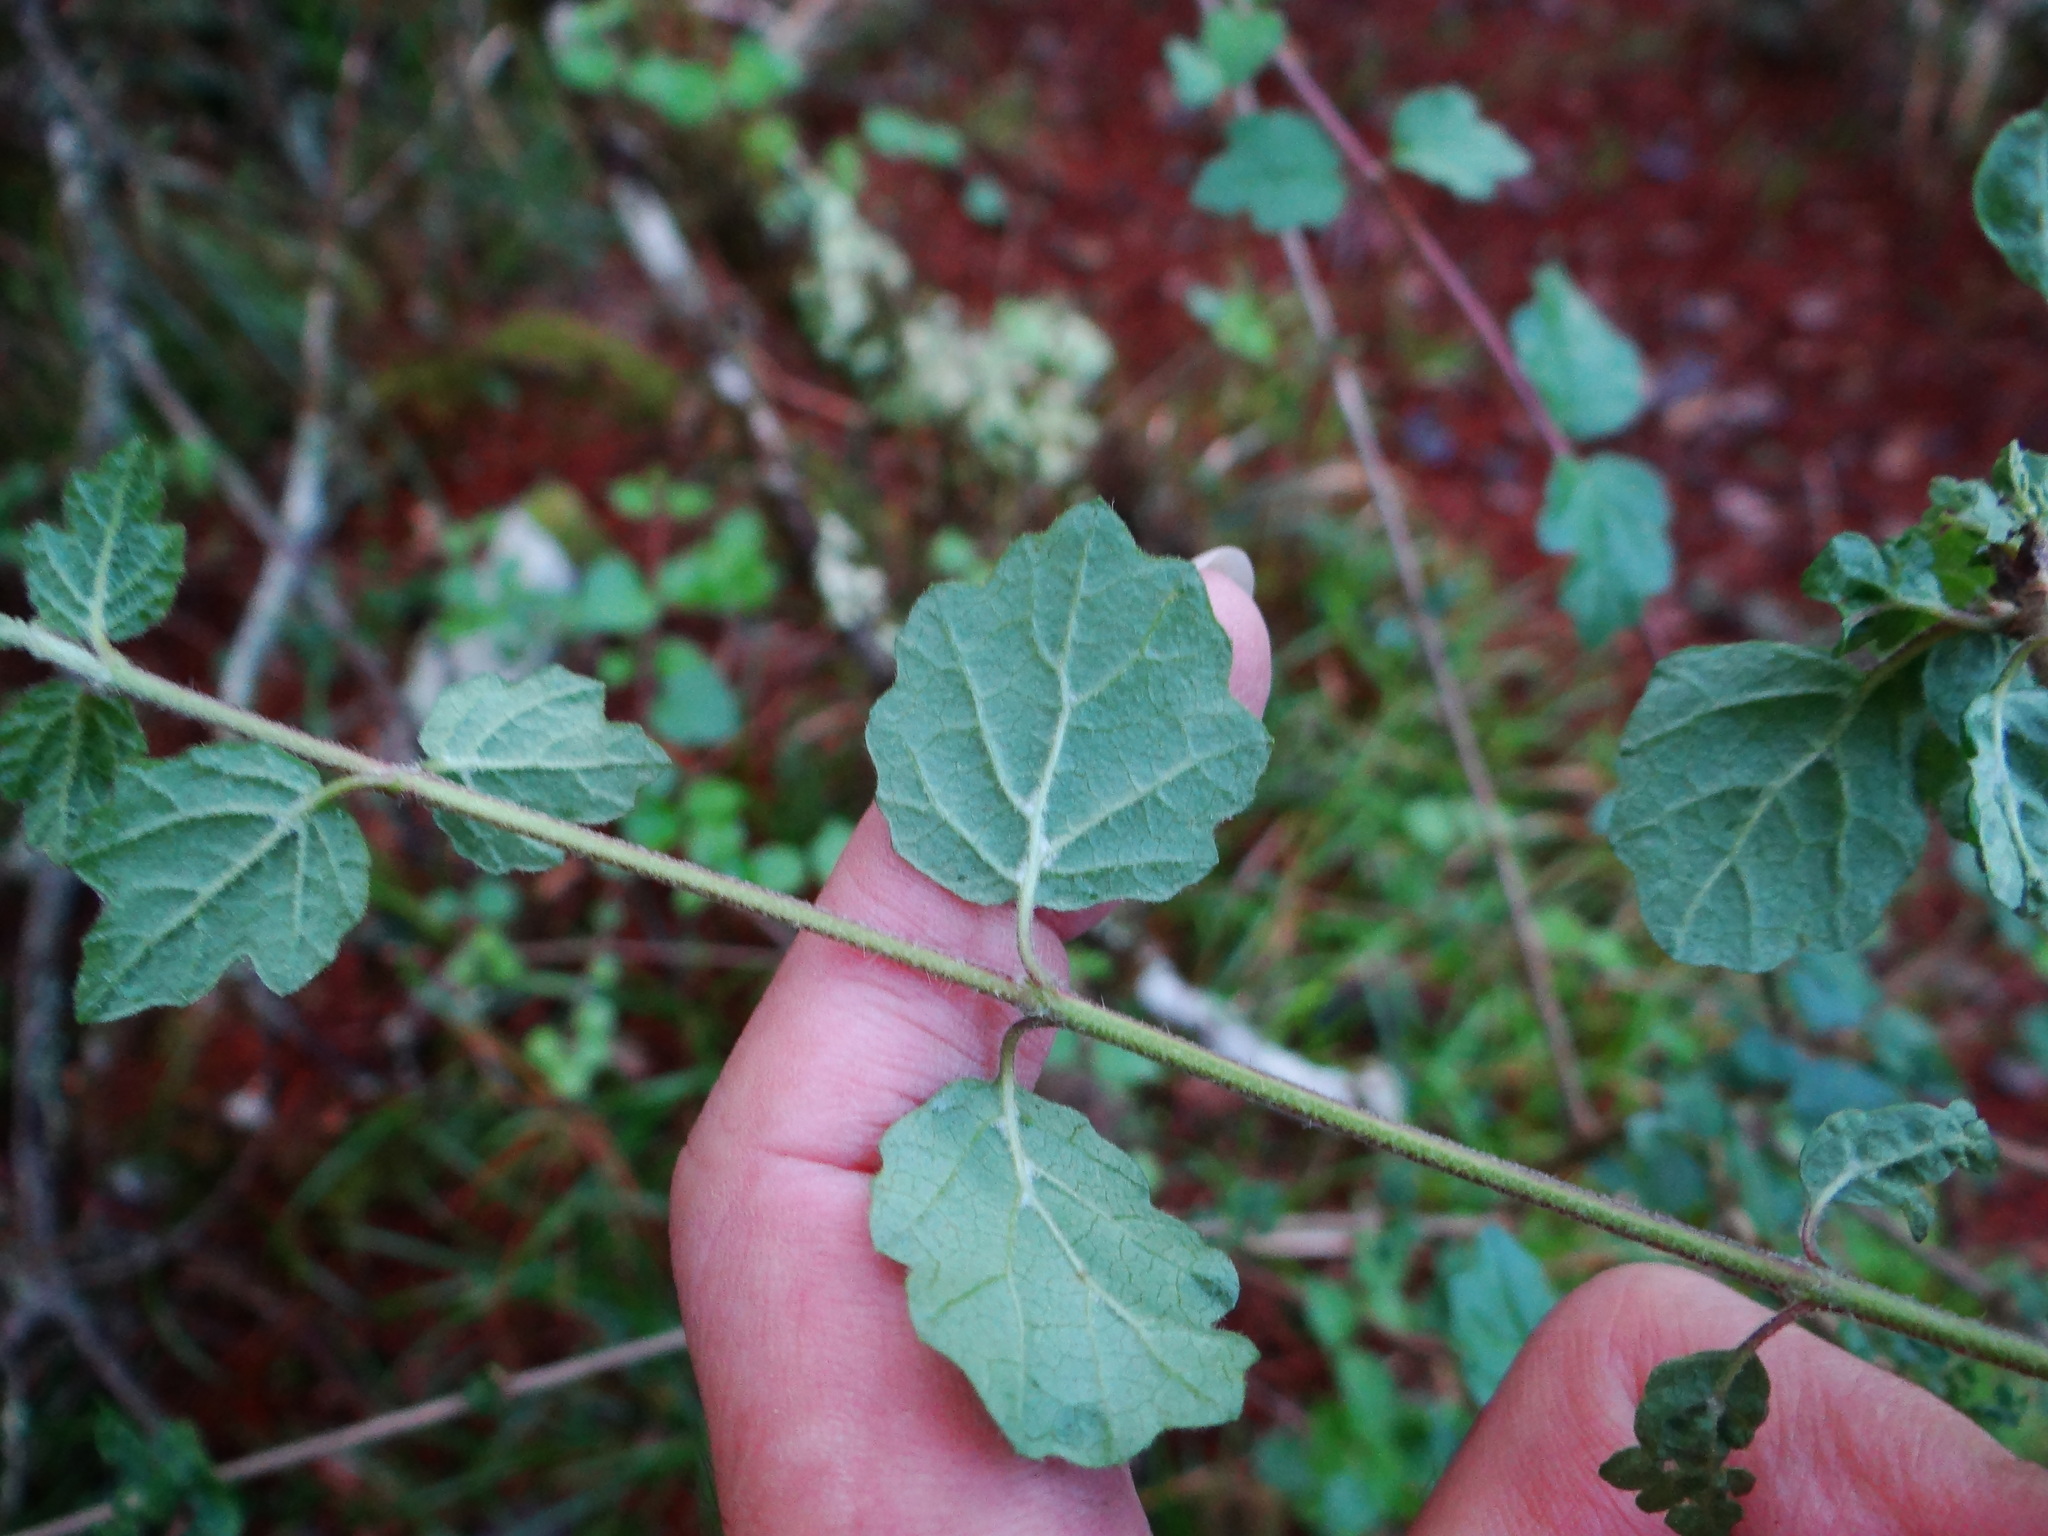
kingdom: Plantae
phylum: Tracheophyta
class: Magnoliopsida
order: Dipsacales
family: Viburnaceae
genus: Viburnum
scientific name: Viburnum parvifolium
